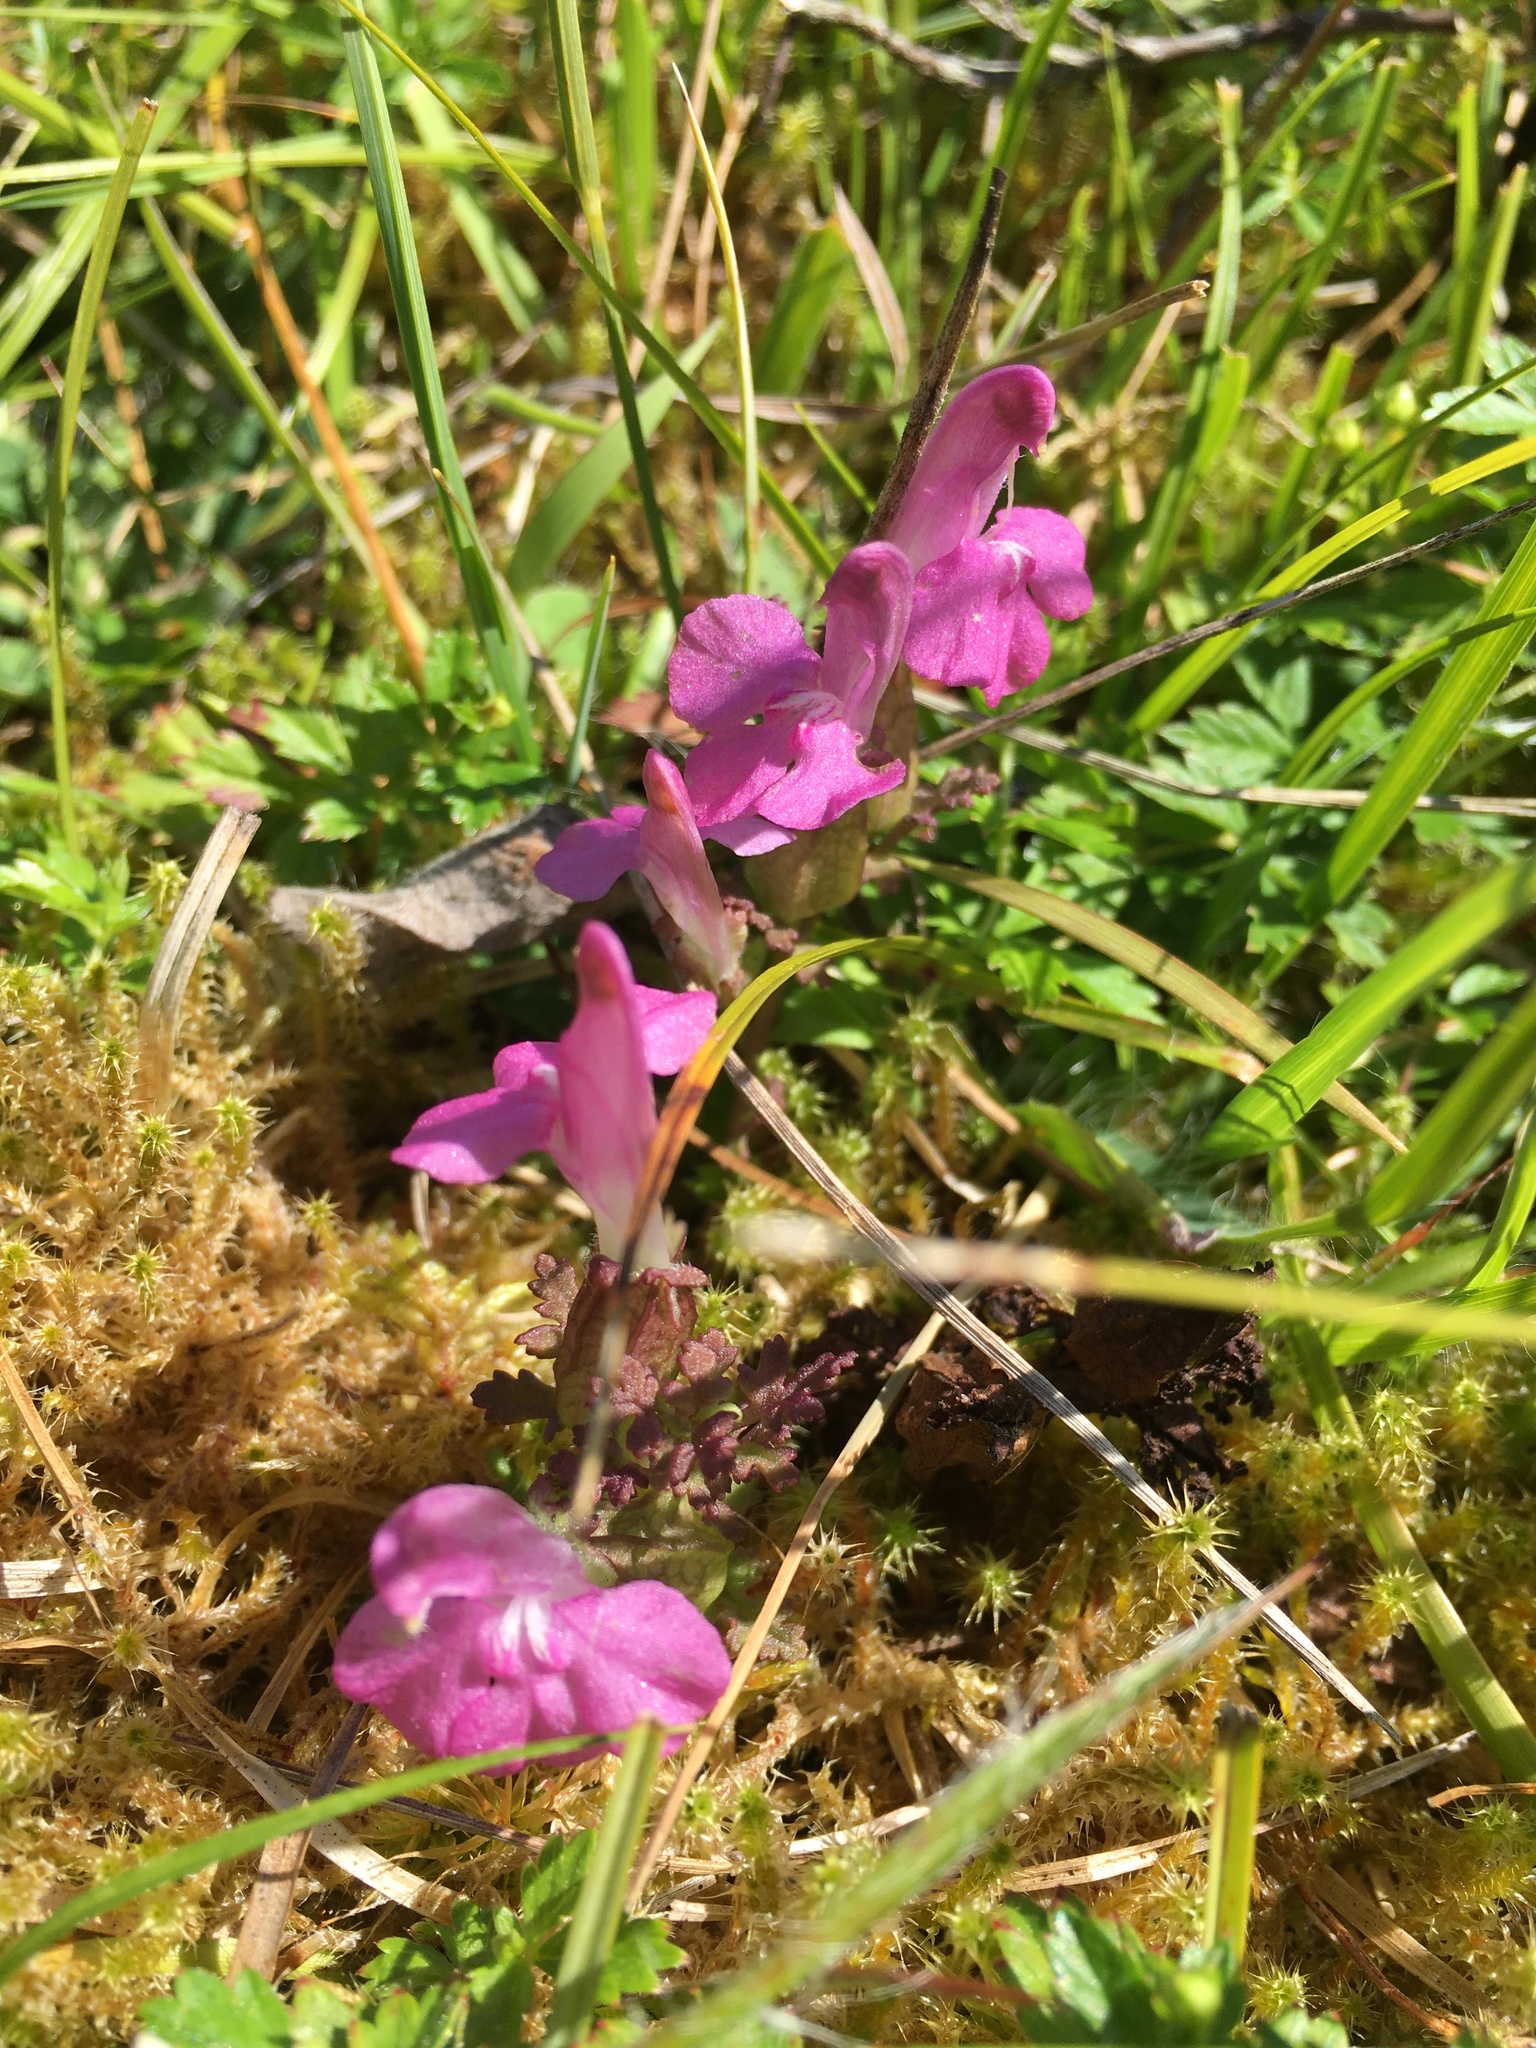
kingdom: Plantae
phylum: Tracheophyta
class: Magnoliopsida
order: Lamiales
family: Orobanchaceae
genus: Pedicularis
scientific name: Pedicularis sylvatica
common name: Lousewort
